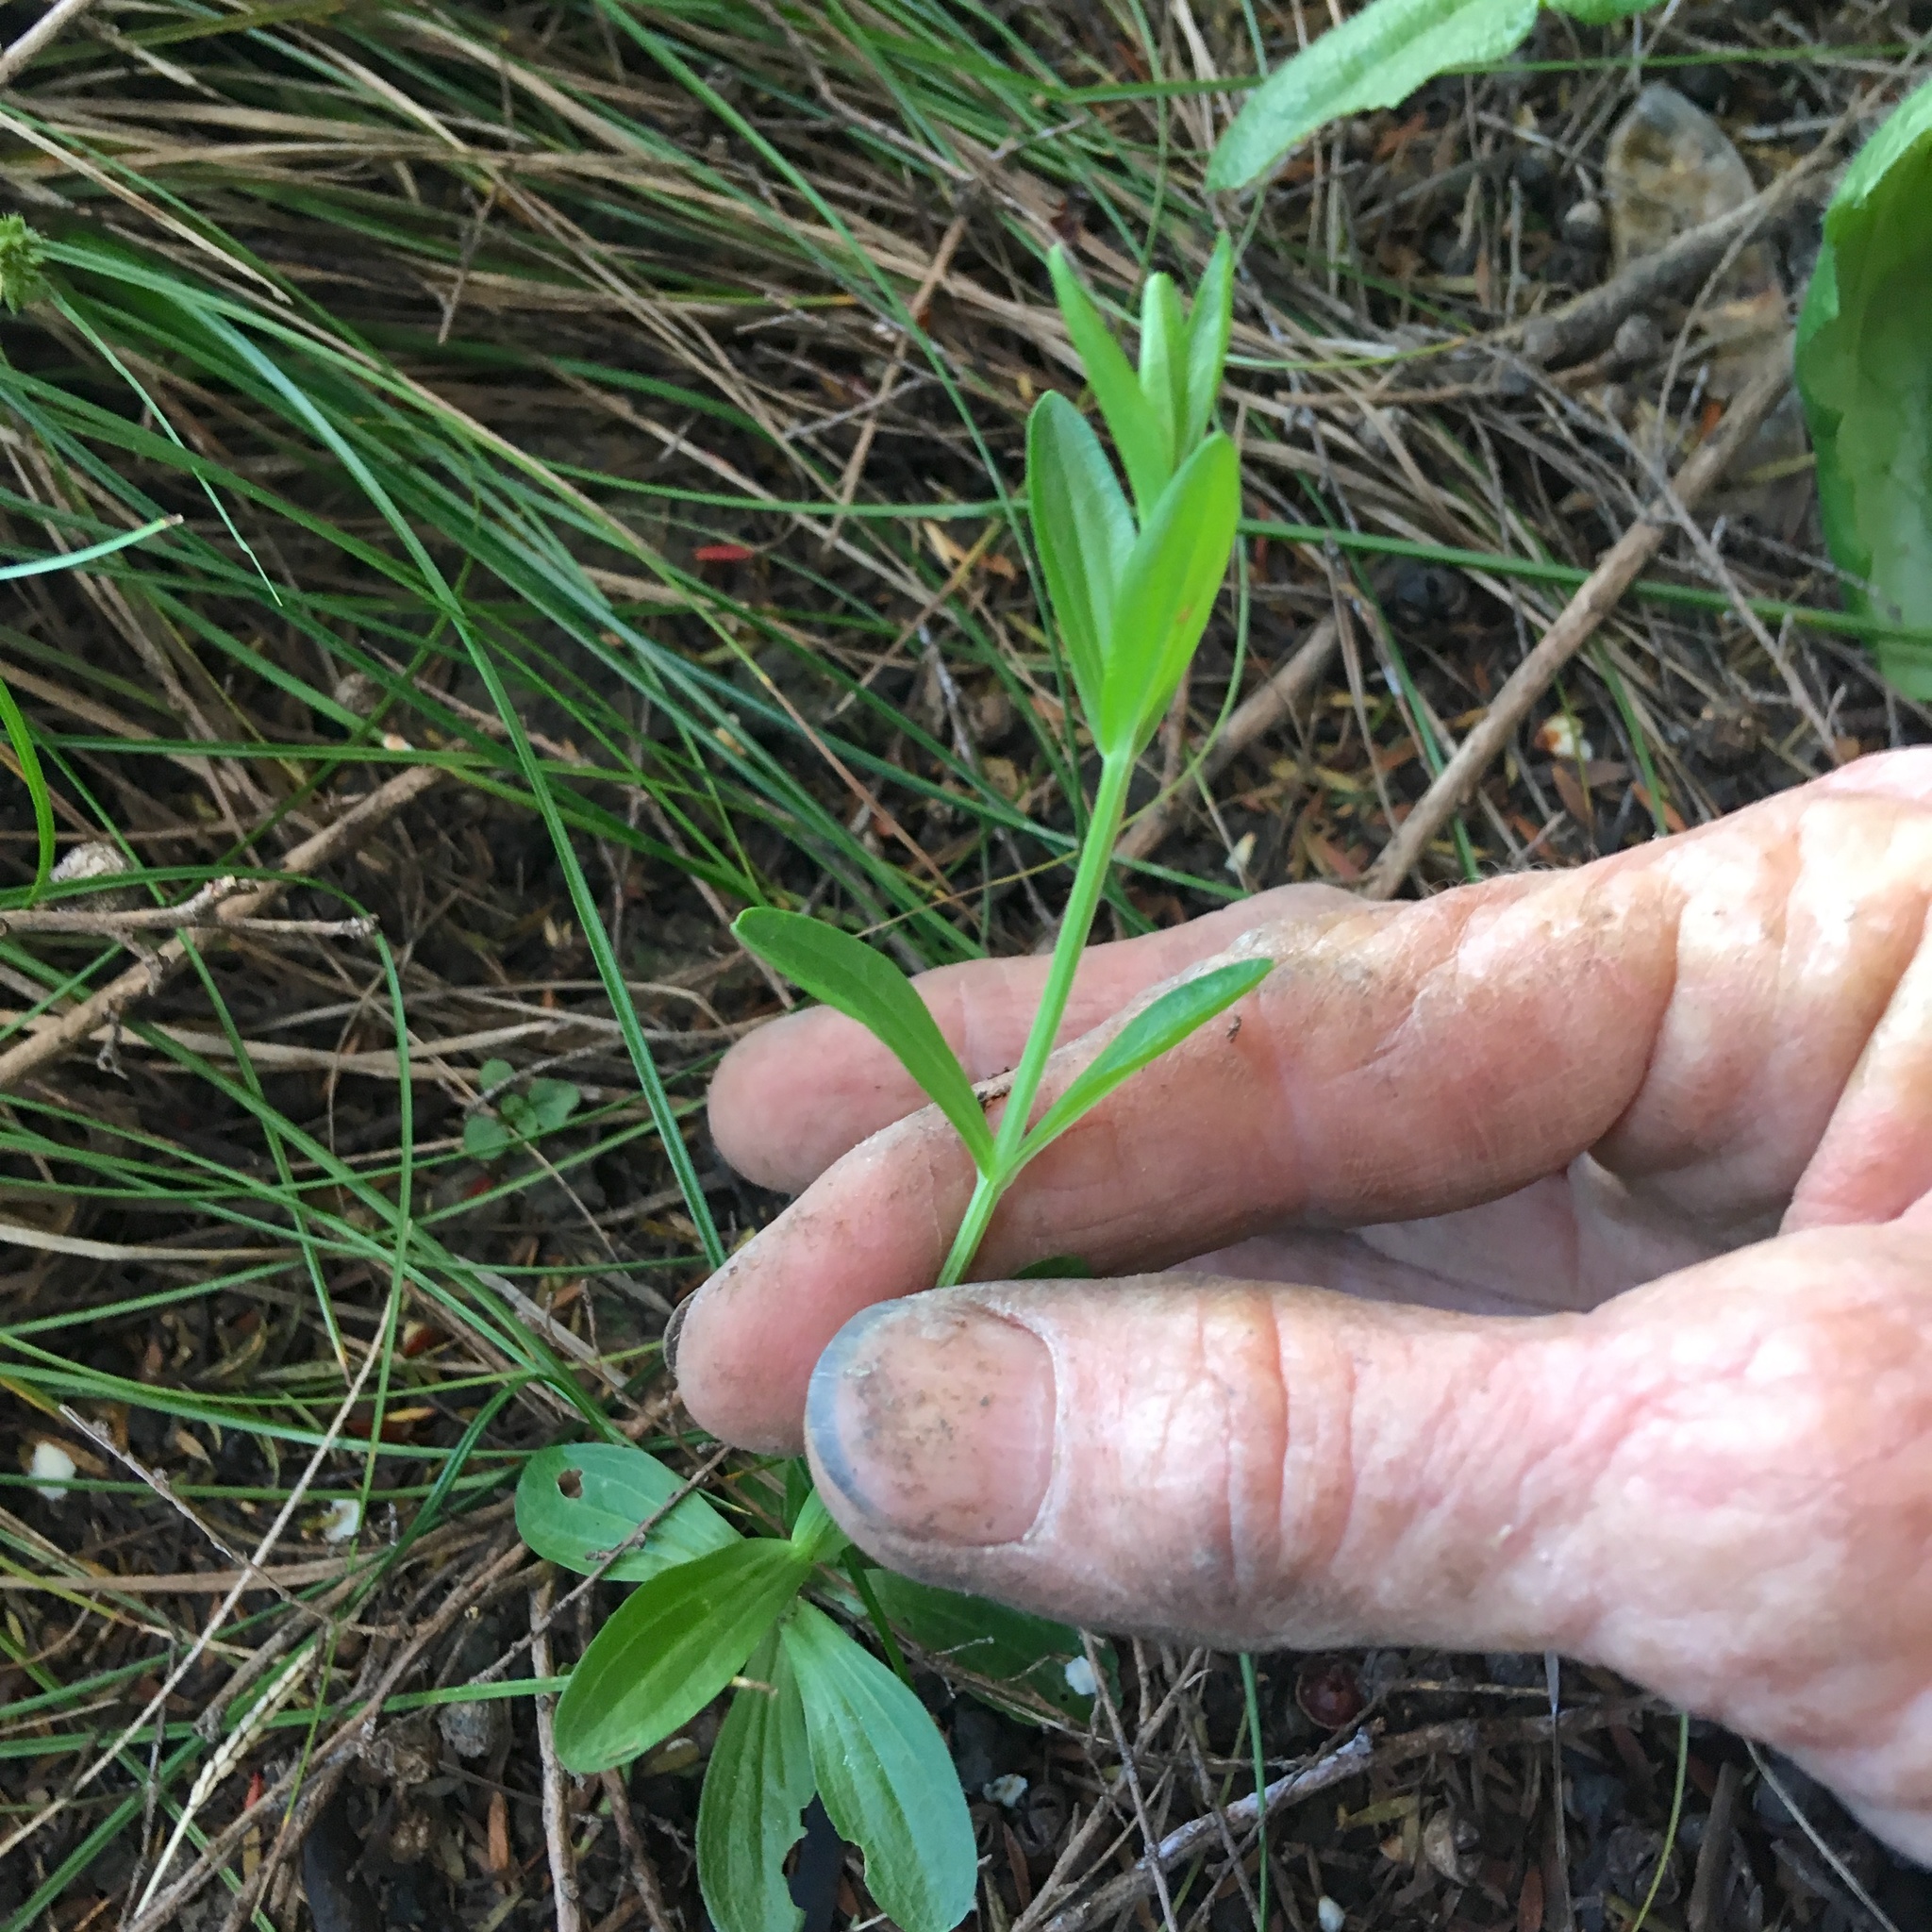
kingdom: Plantae
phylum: Tracheophyta
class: Magnoliopsida
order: Gentianales
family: Gentianaceae
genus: Centaurium
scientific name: Centaurium erythraea
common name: Common centaury
